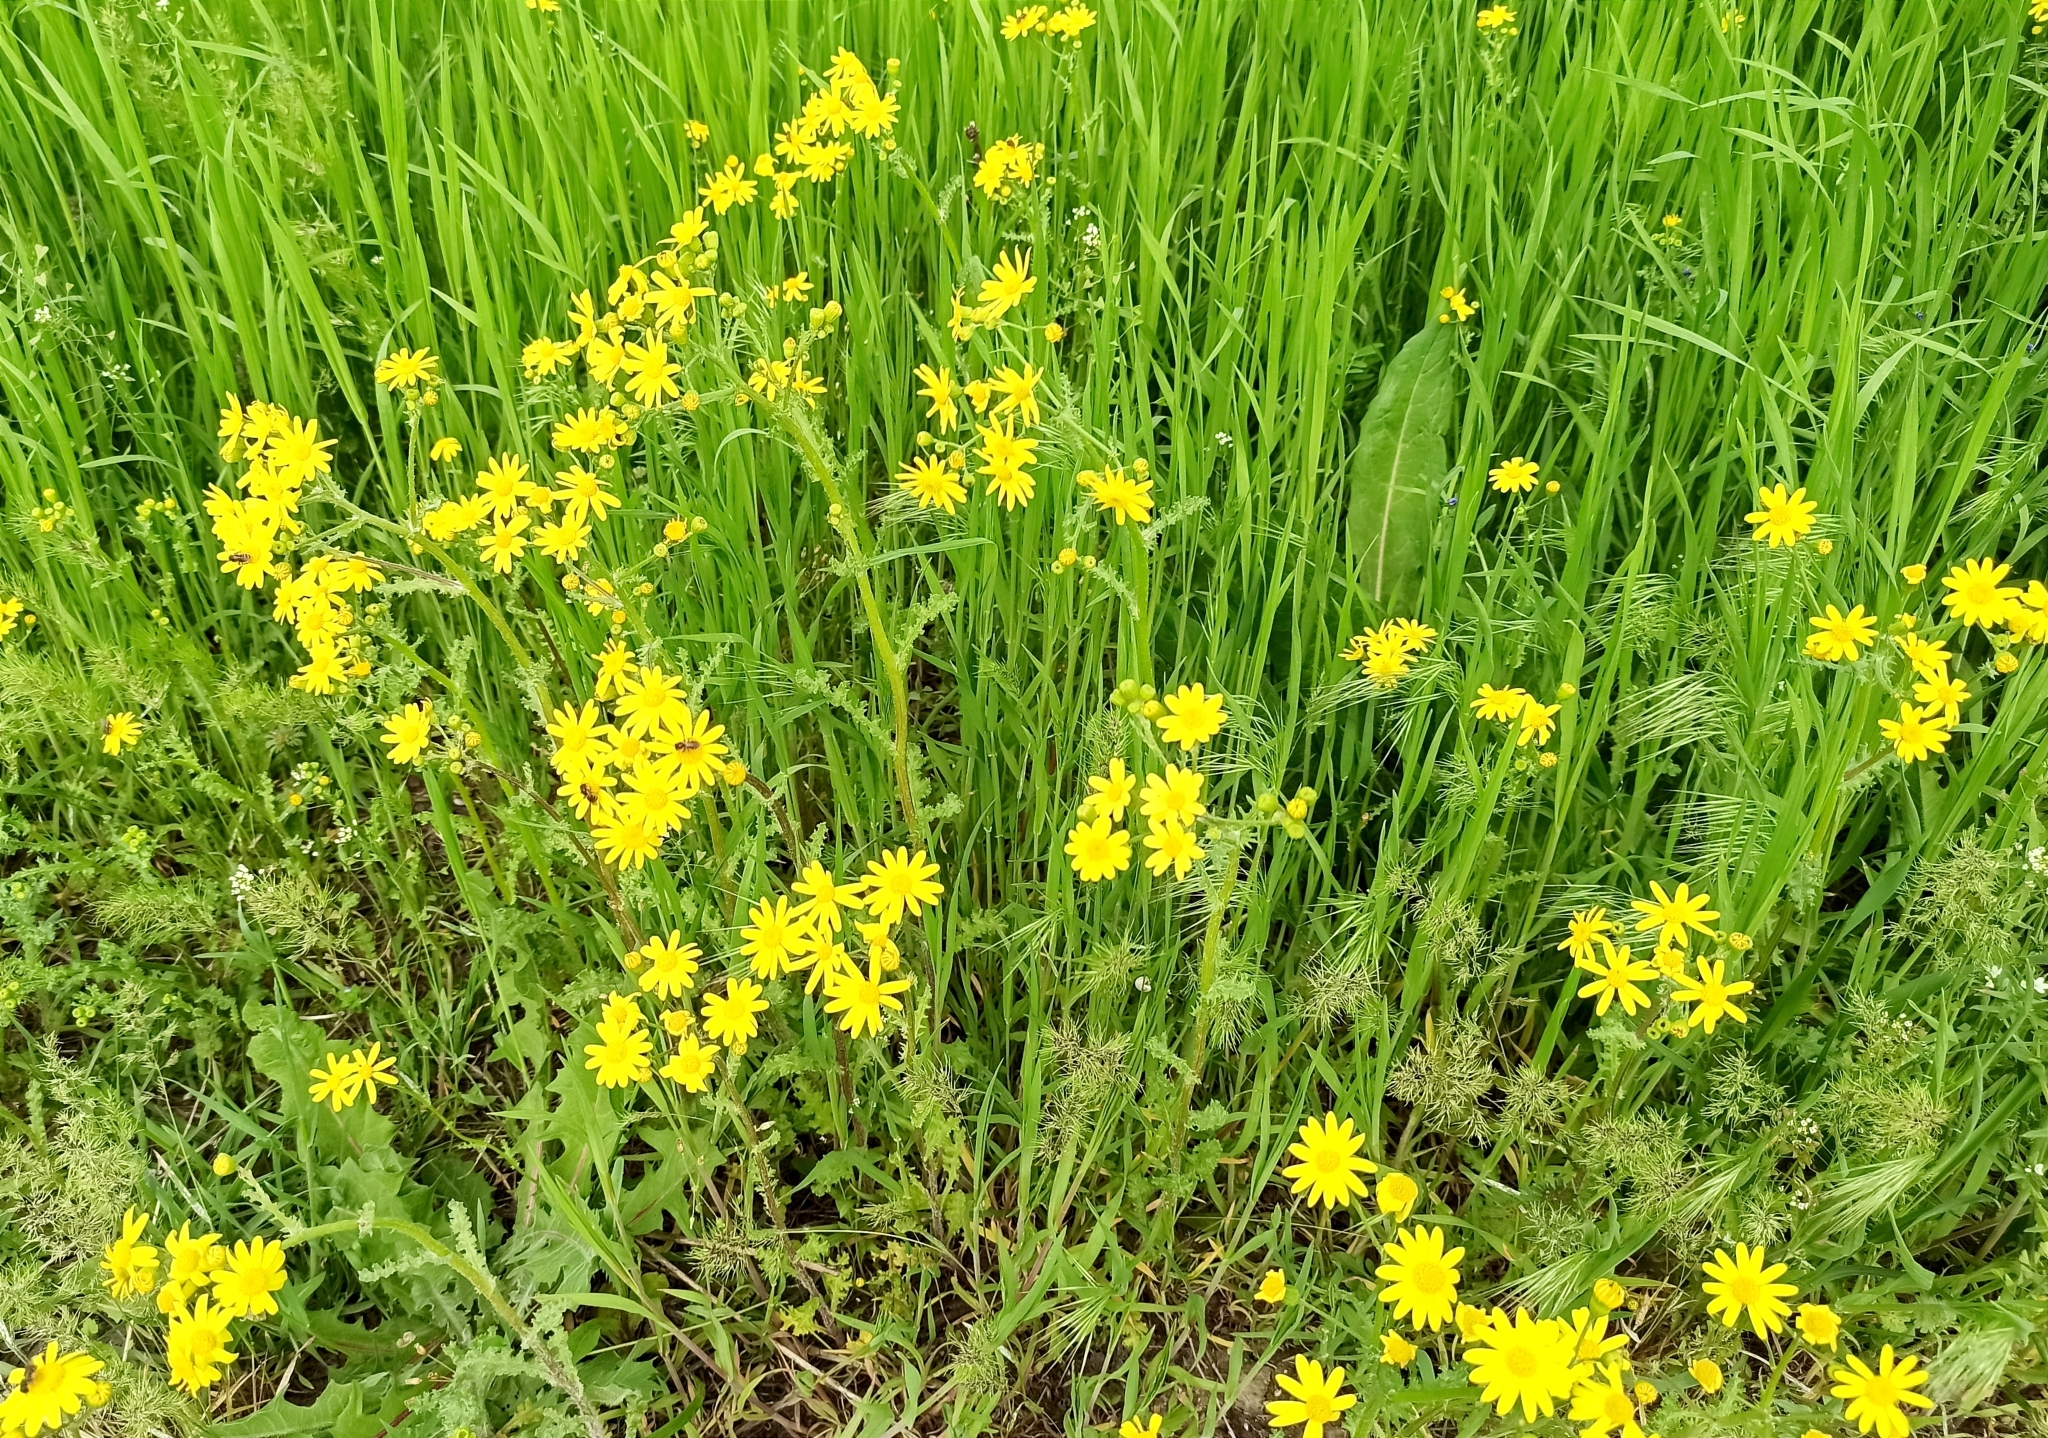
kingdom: Plantae
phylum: Tracheophyta
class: Magnoliopsida
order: Asterales
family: Asteraceae
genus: Senecio
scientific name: Senecio vernalis
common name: Eastern groundsel
